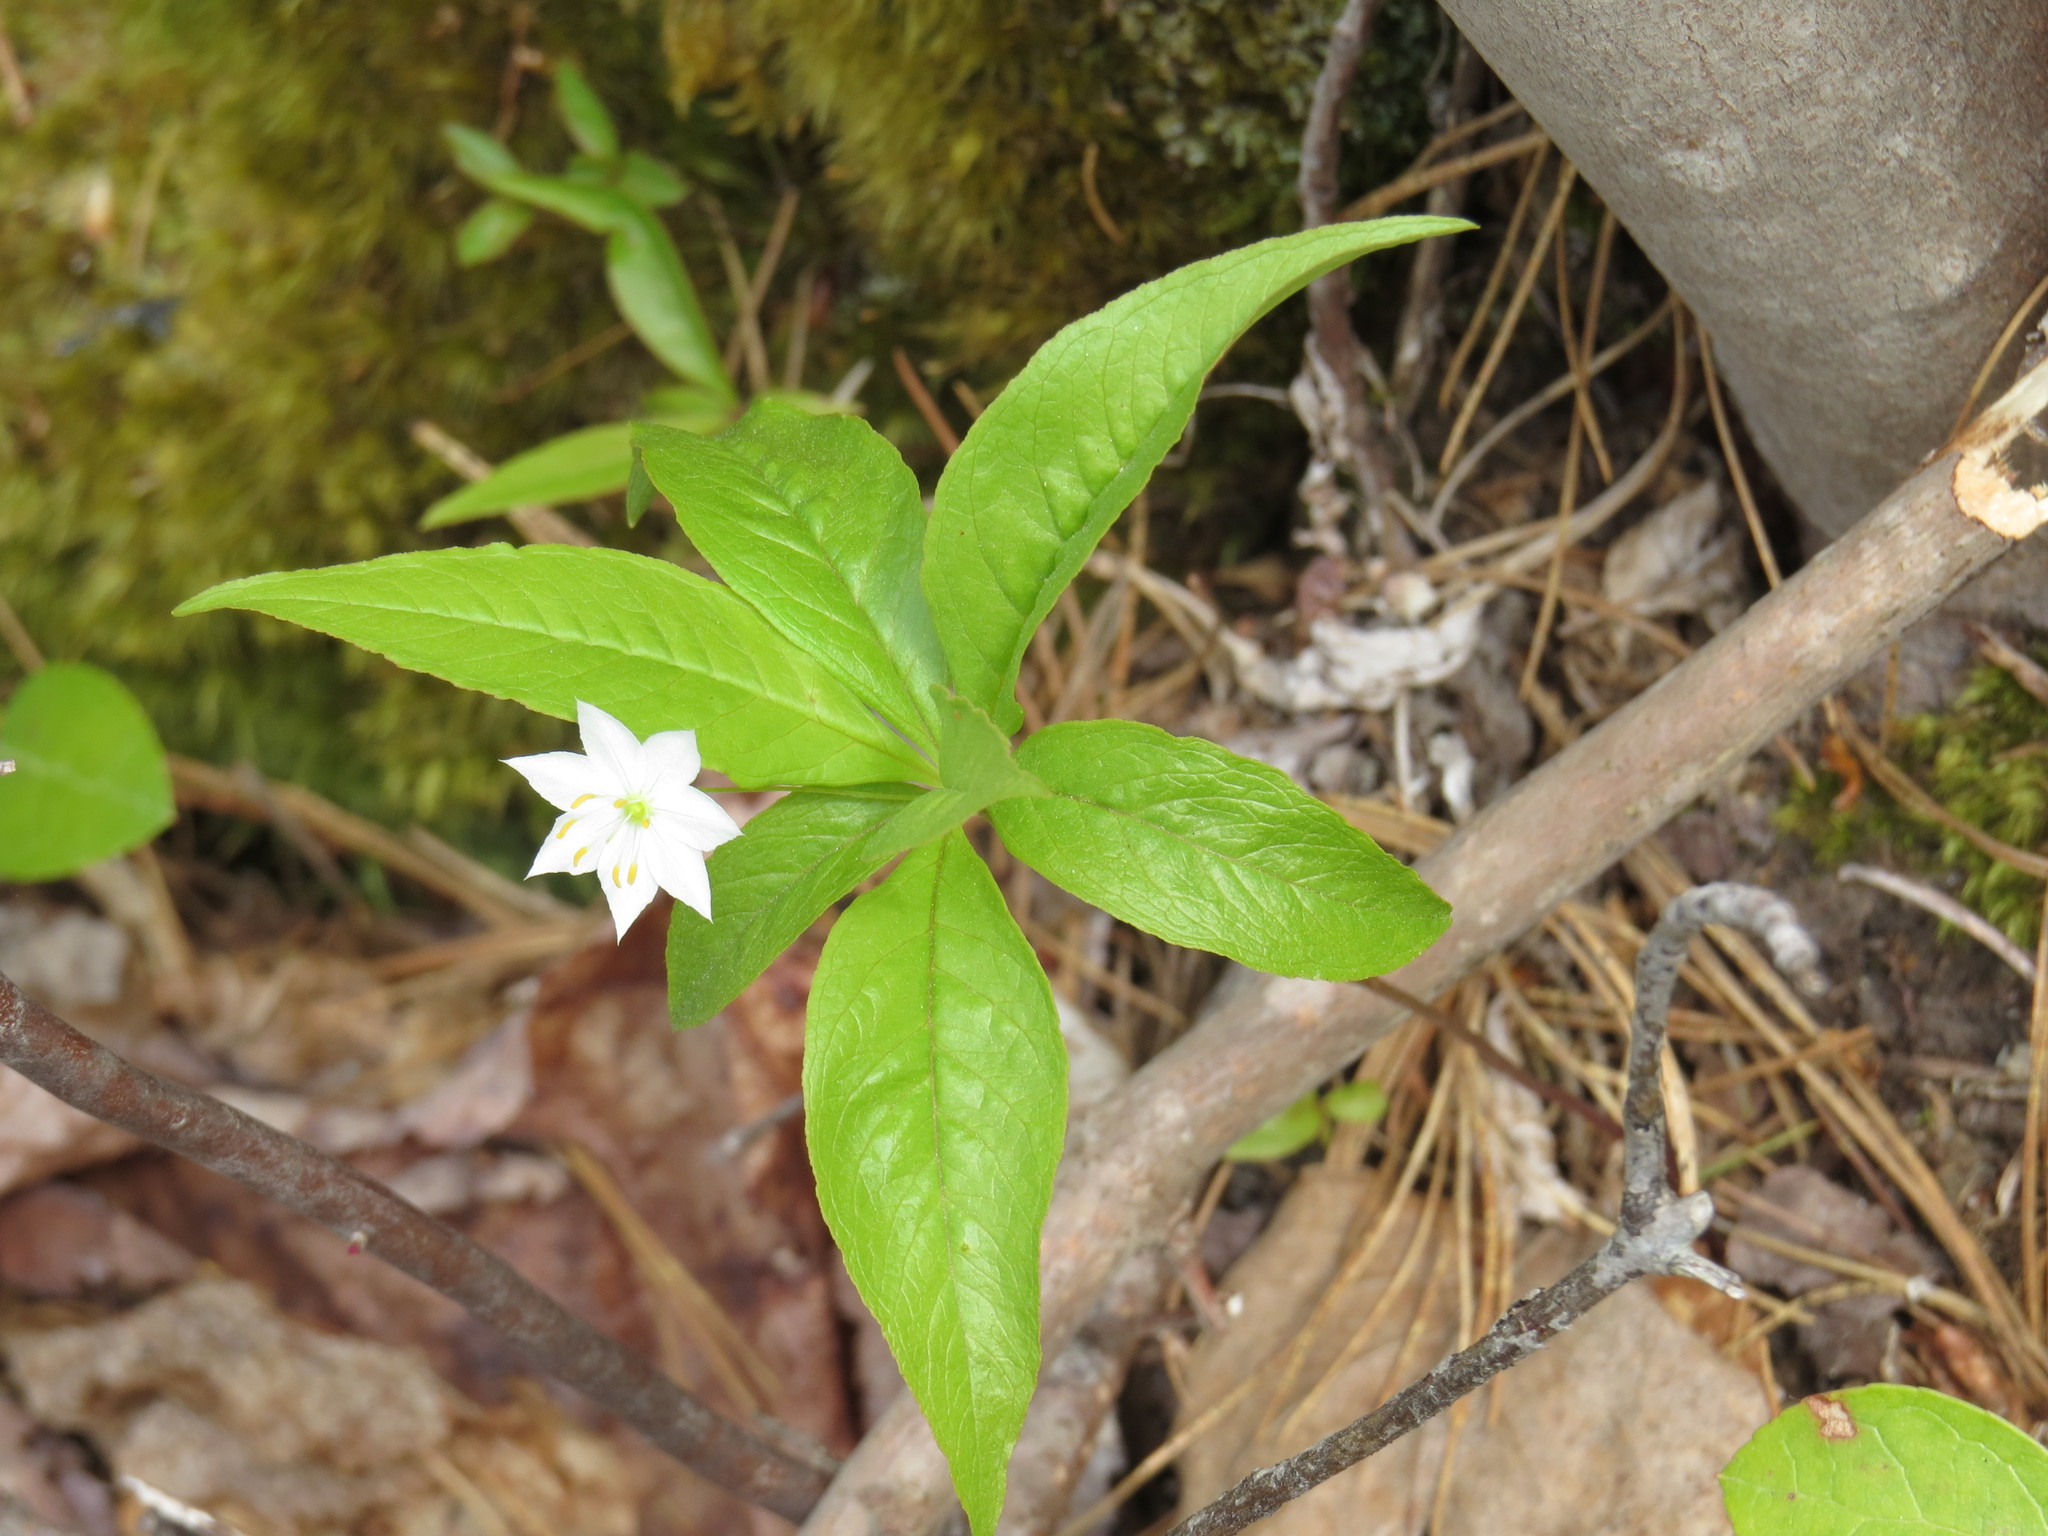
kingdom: Plantae
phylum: Tracheophyta
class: Magnoliopsida
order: Ericales
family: Primulaceae
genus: Lysimachia
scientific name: Lysimachia borealis
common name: American starflower
